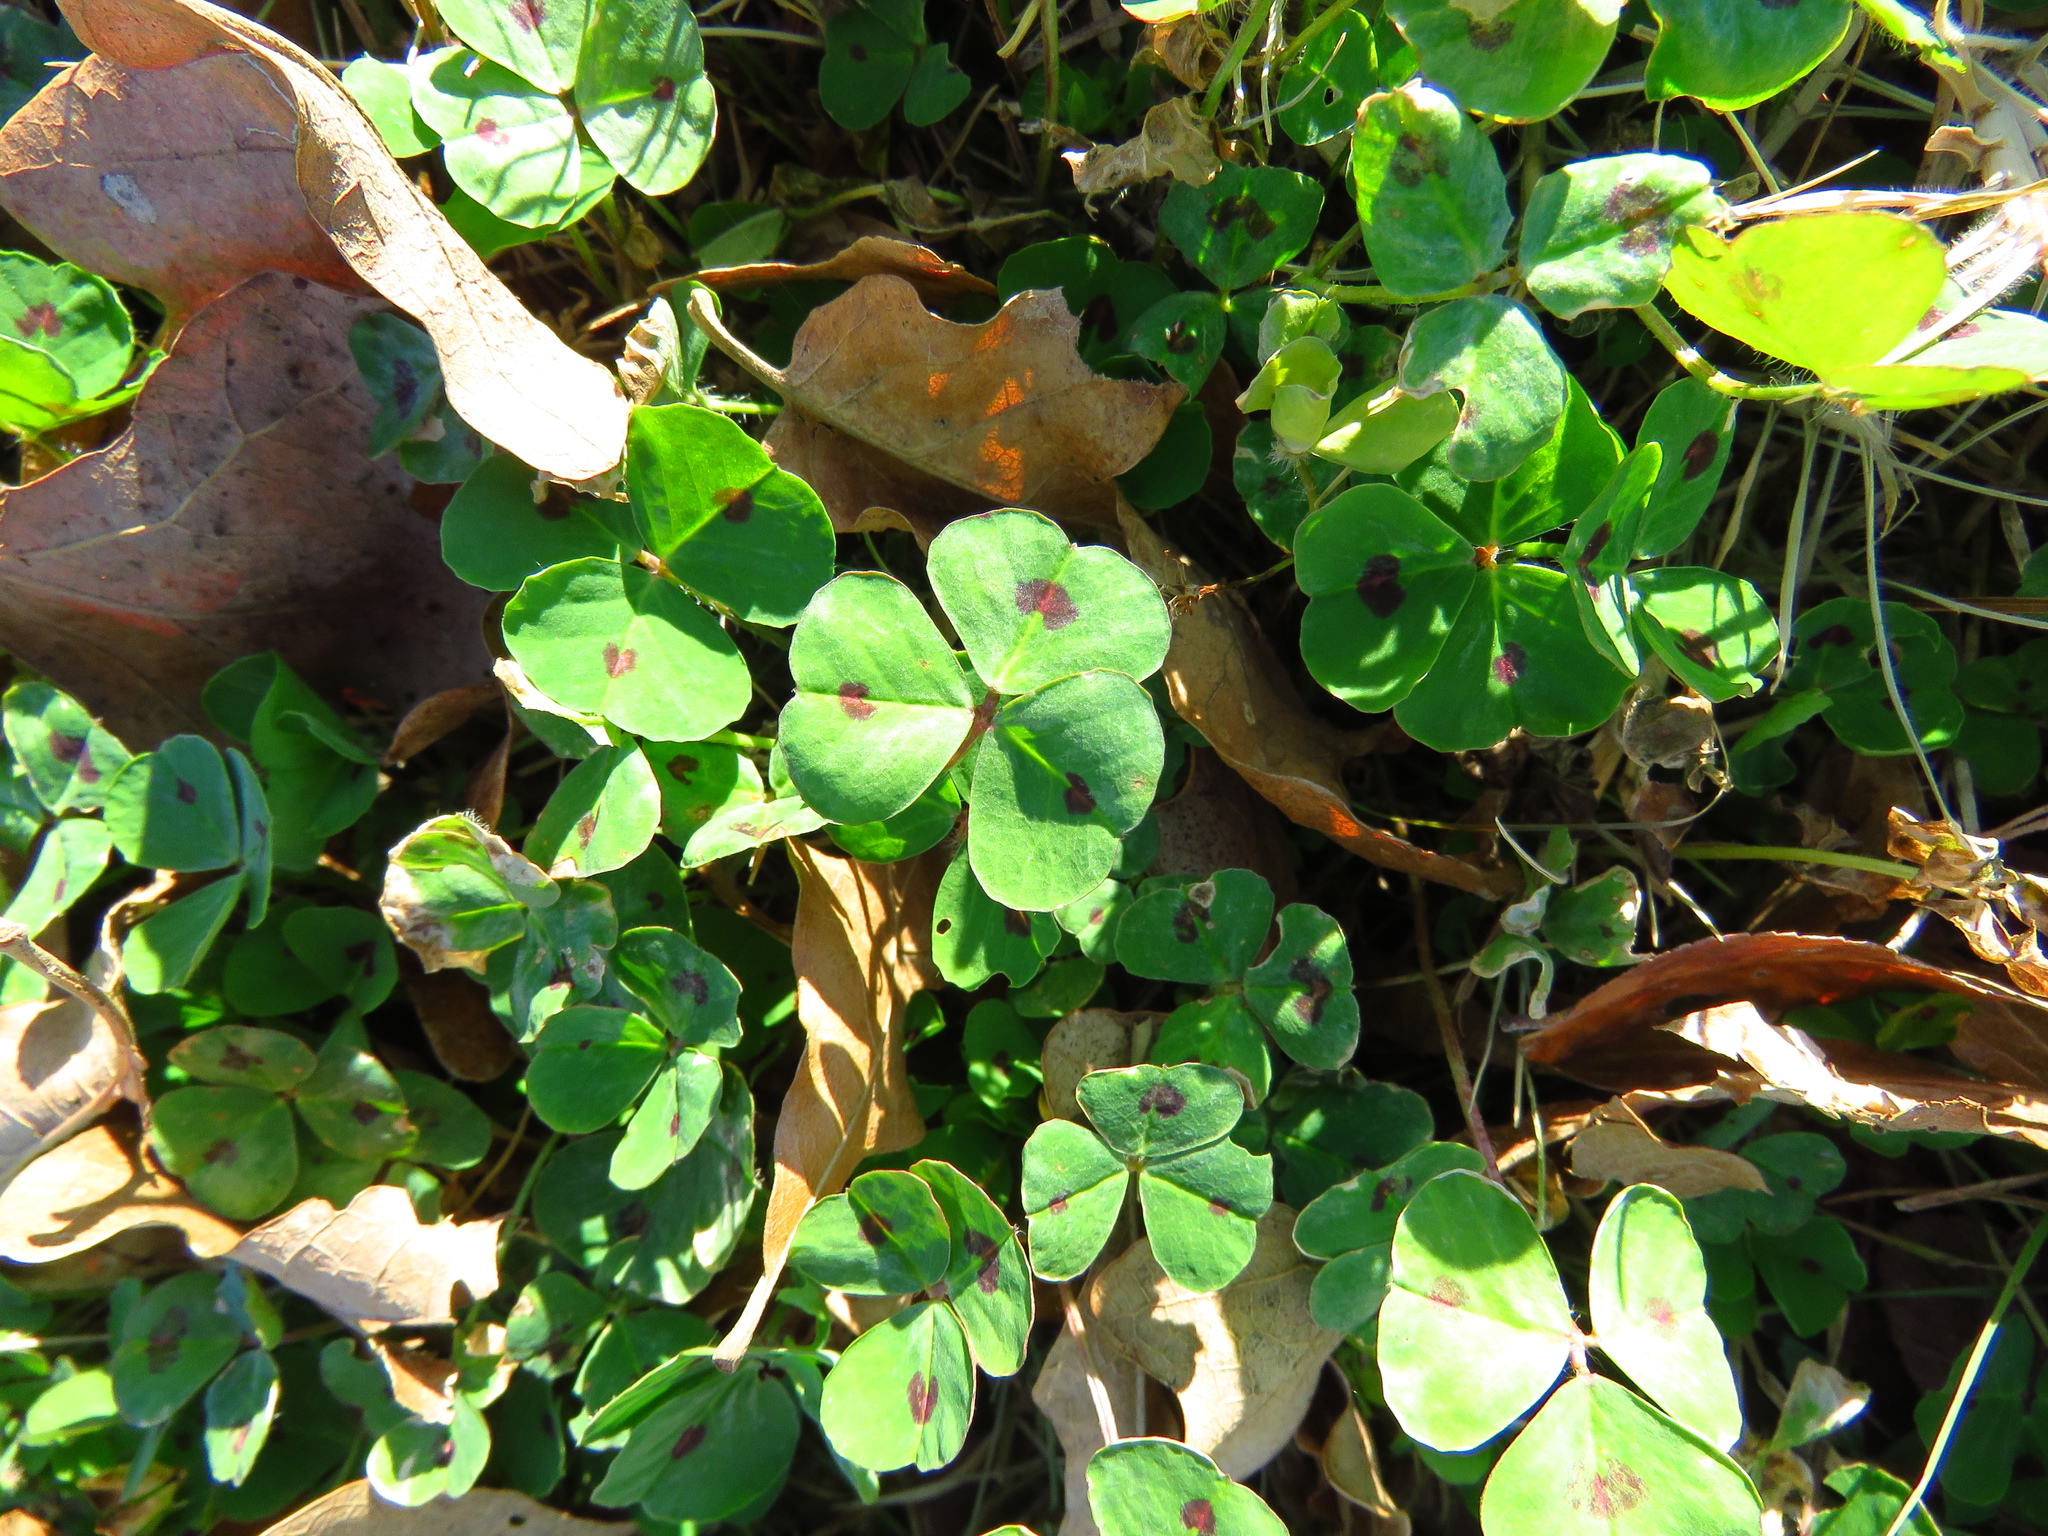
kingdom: Plantae
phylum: Tracheophyta
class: Magnoliopsida
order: Fabales
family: Fabaceae
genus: Medicago
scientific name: Medicago arabica
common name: Spotted medick
